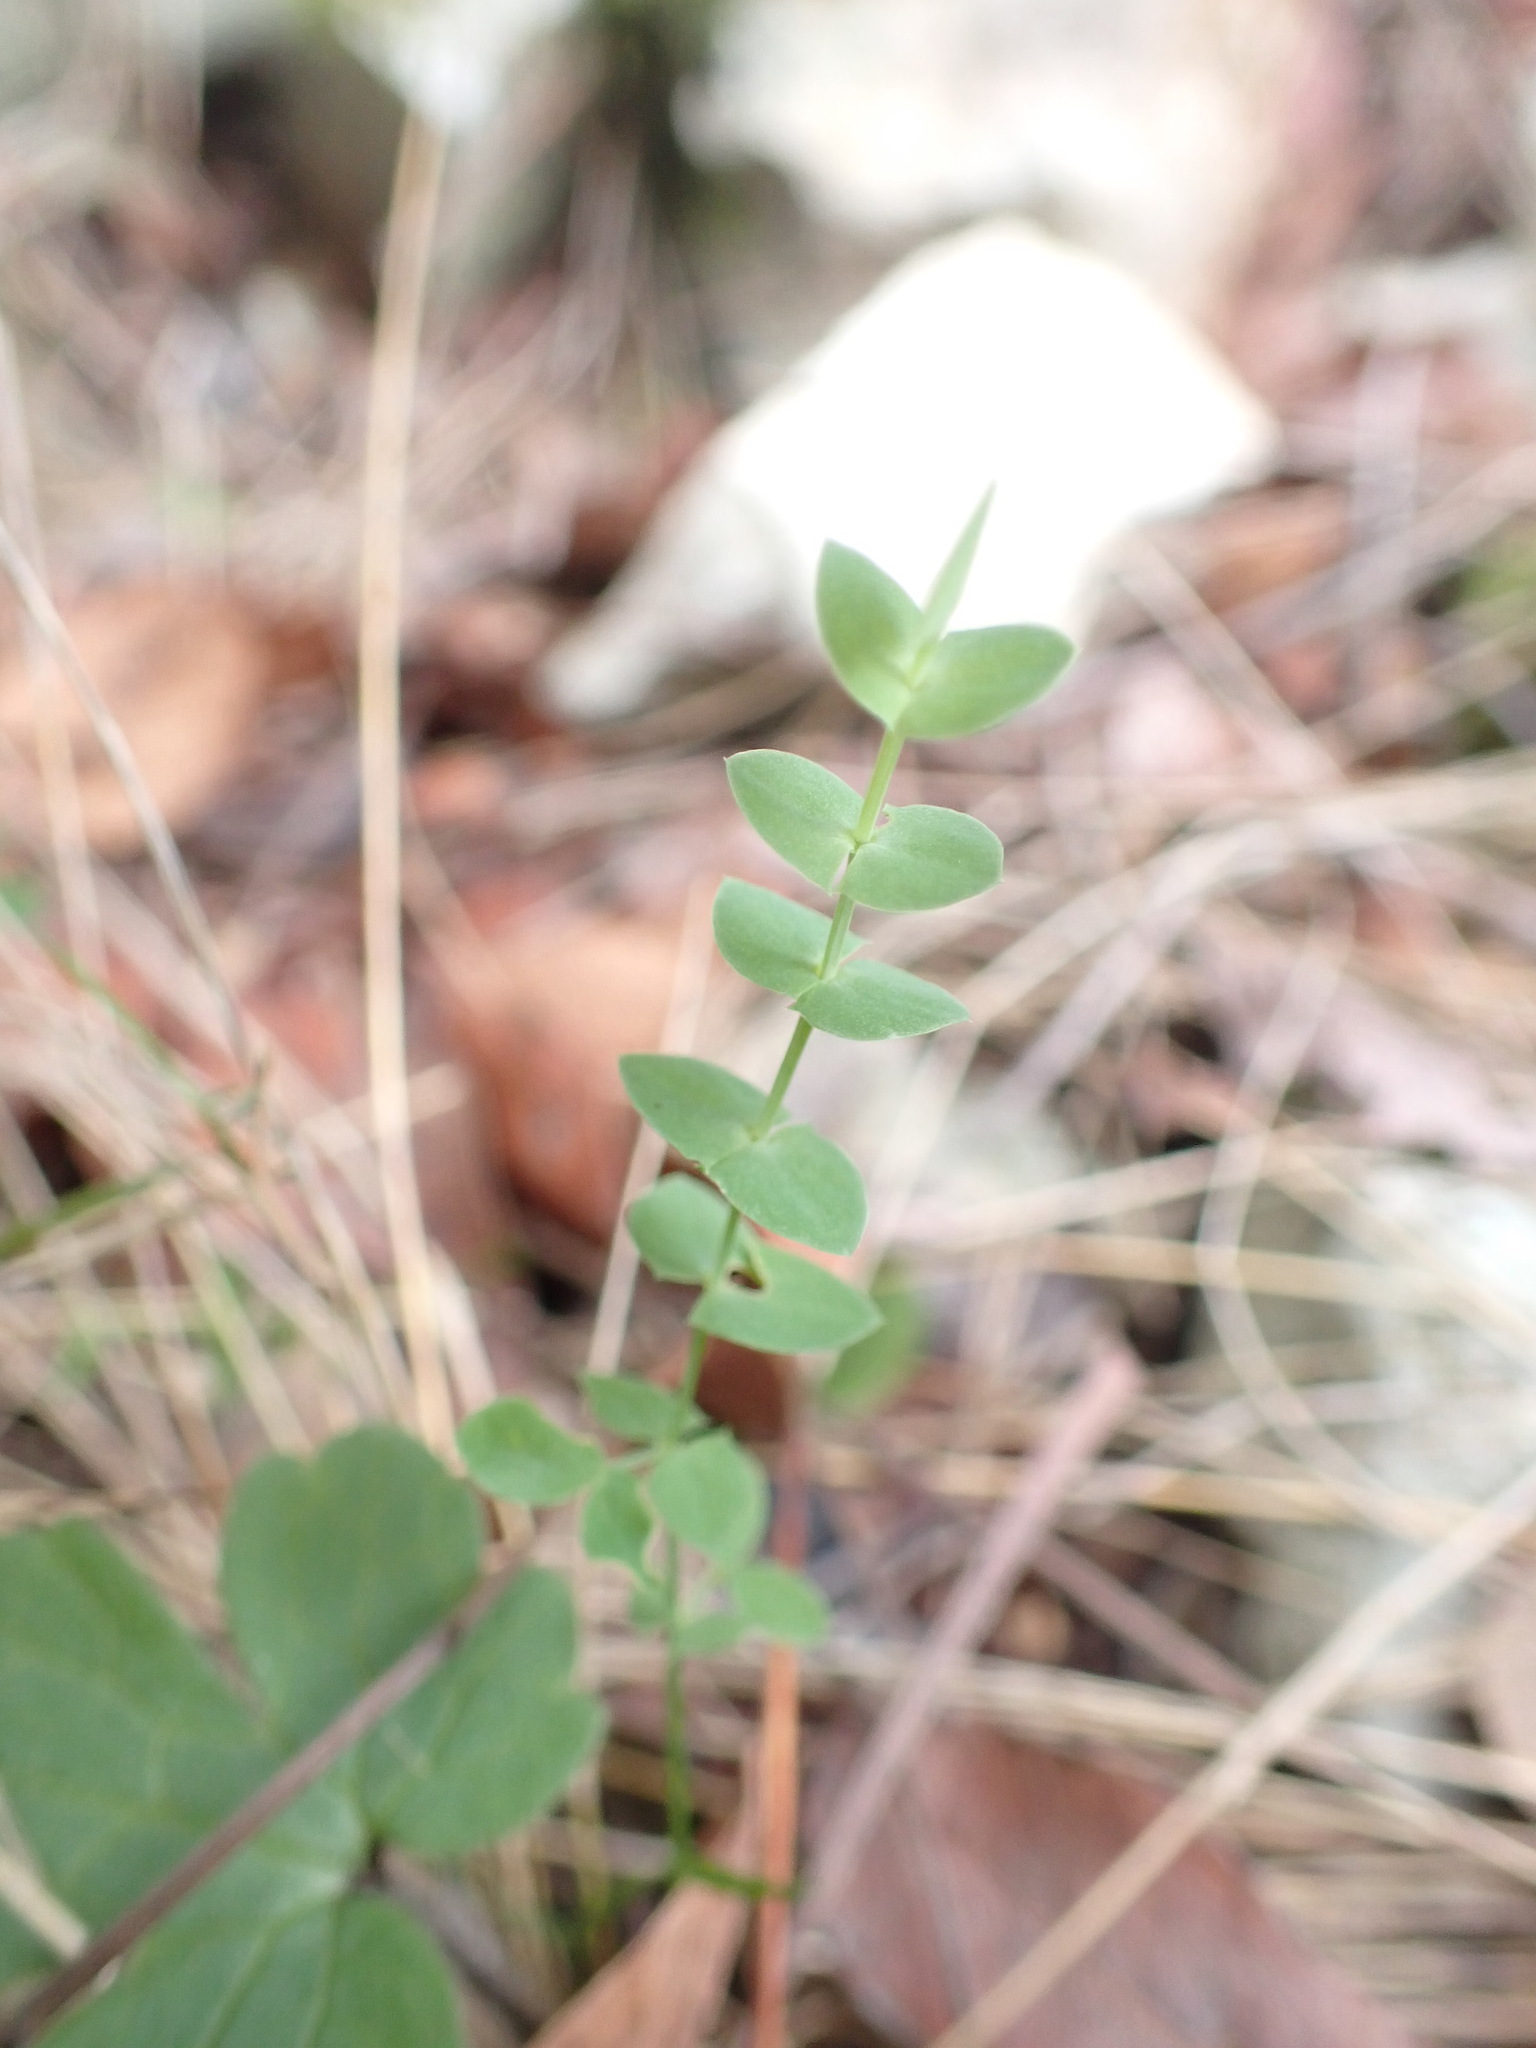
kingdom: Plantae
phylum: Tracheophyta
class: Magnoliopsida
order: Fabales
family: Fabaceae
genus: Lathyrus
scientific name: Lathyrus aphaca
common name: Yellow vetchling
